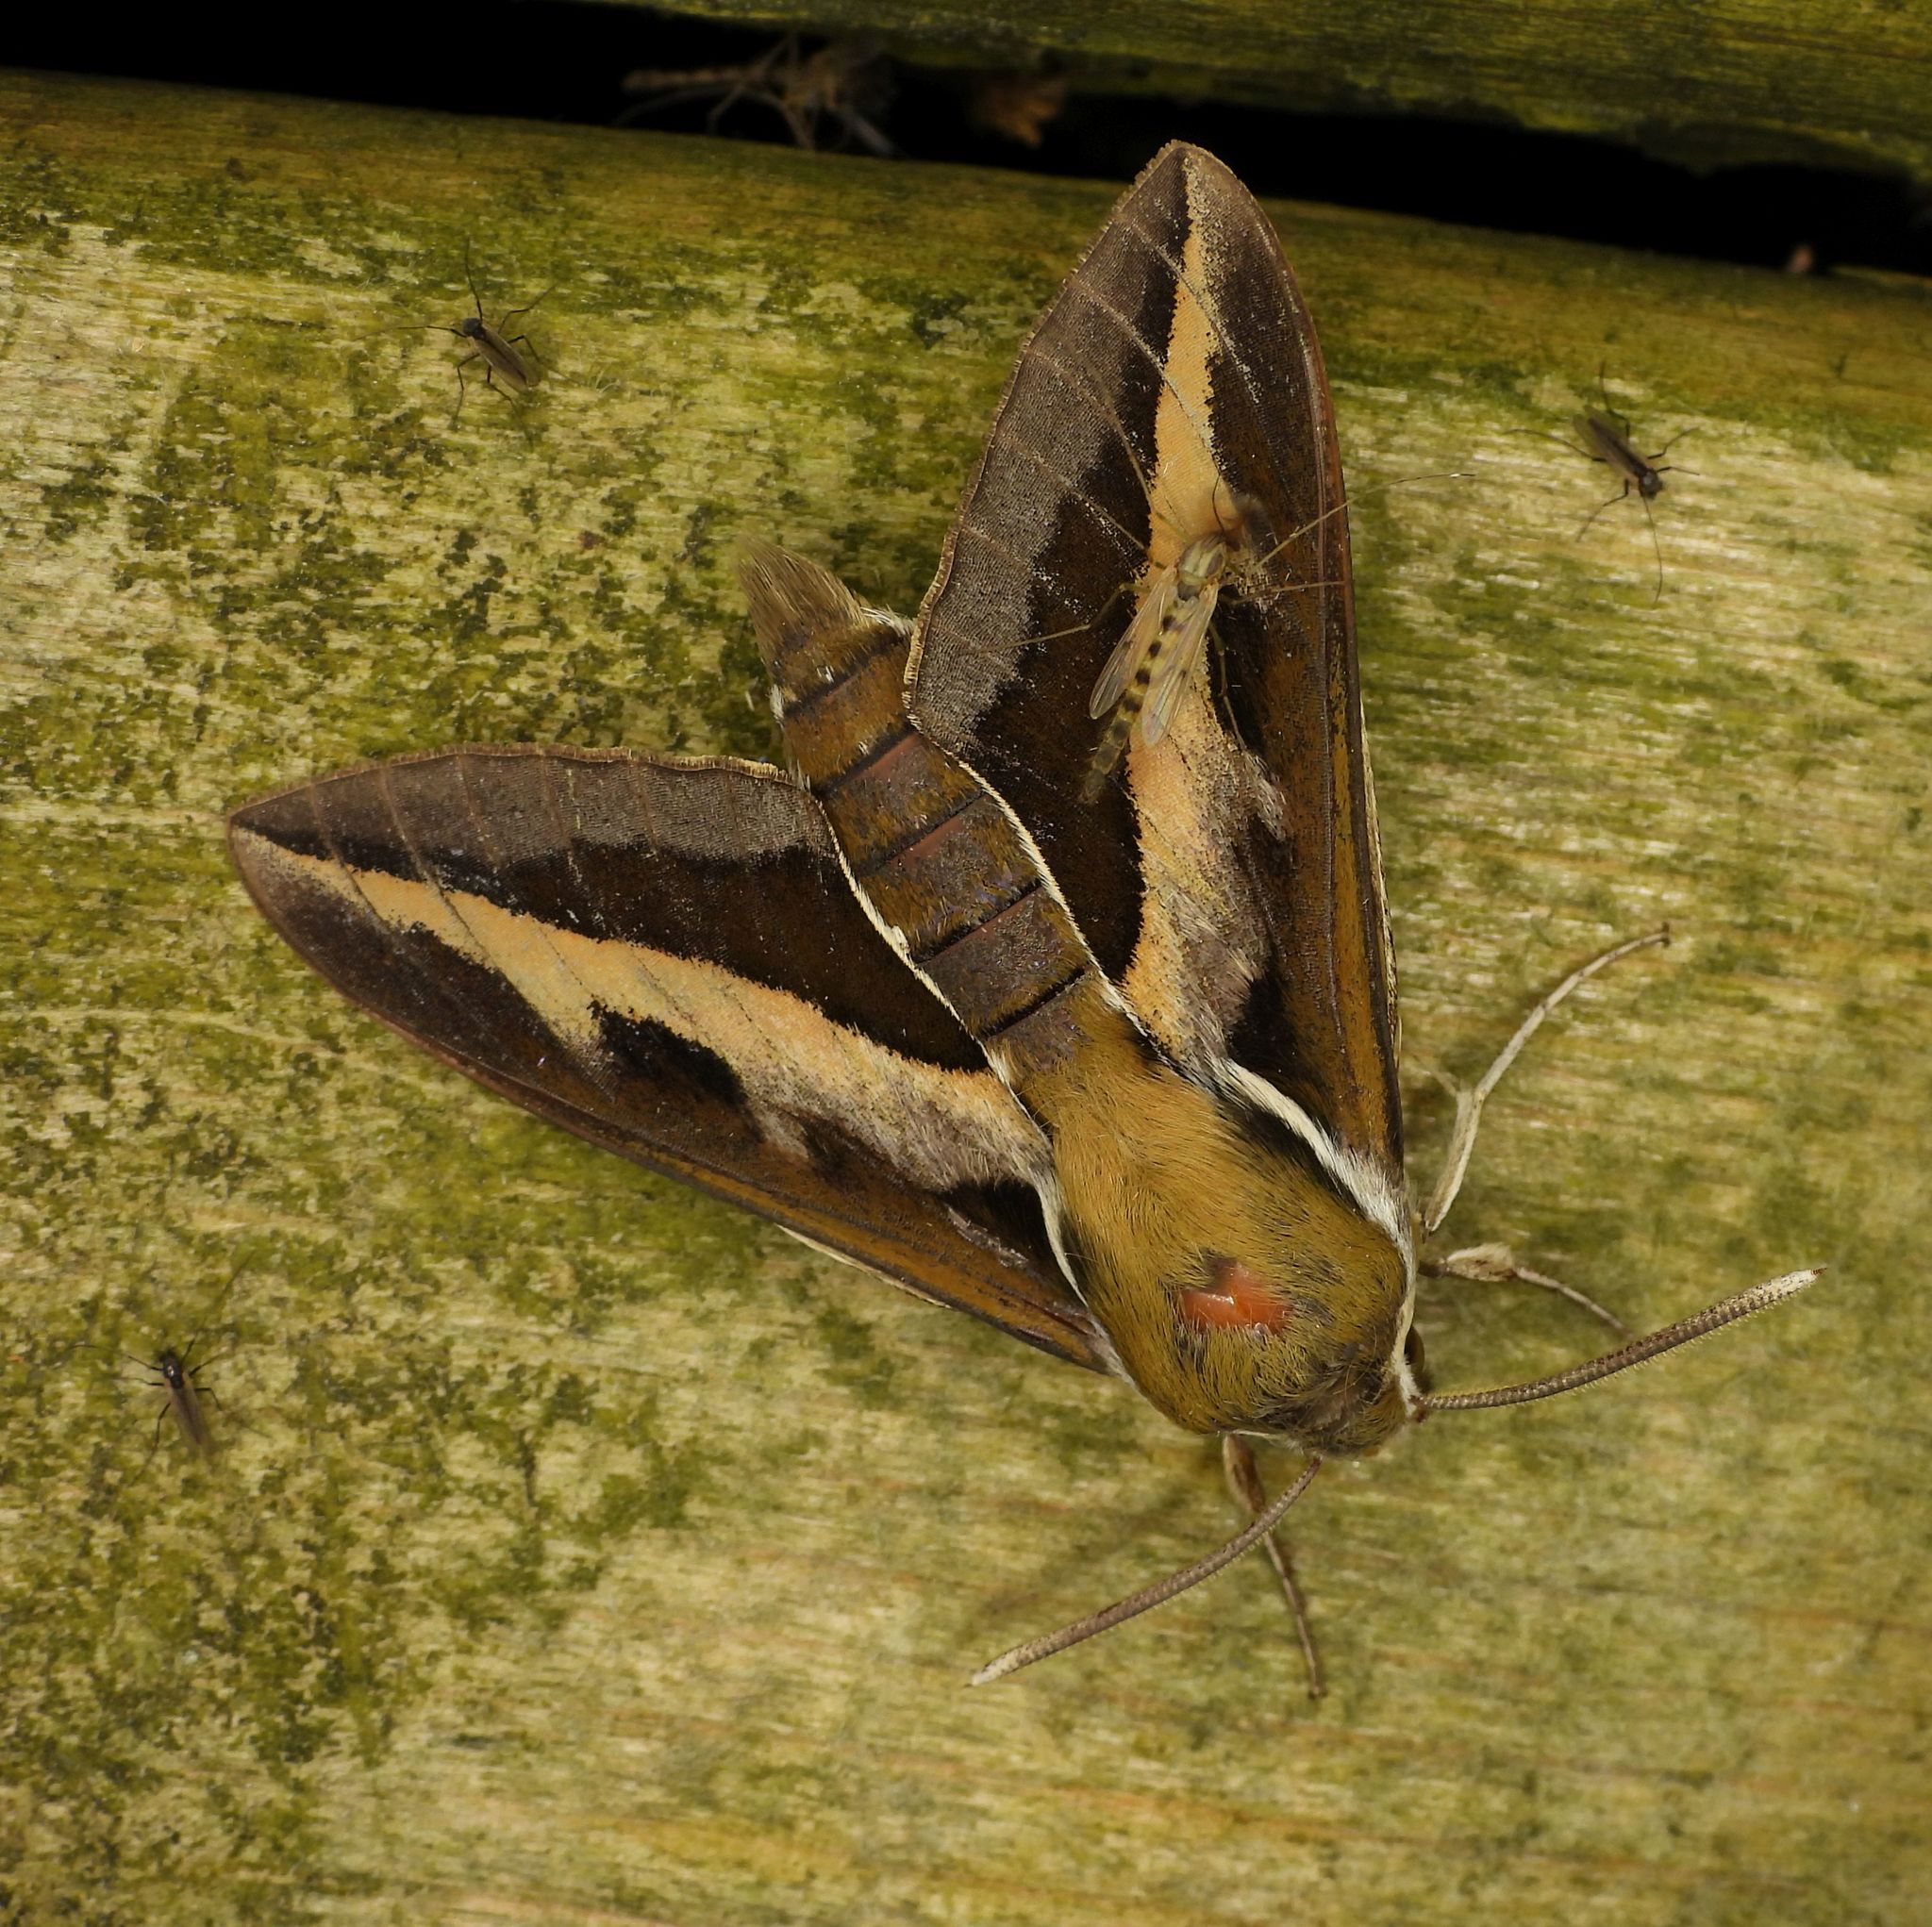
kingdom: Animalia
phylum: Arthropoda
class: Insecta
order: Lepidoptera
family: Sphingidae
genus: Hyles
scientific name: Hyles gallii
